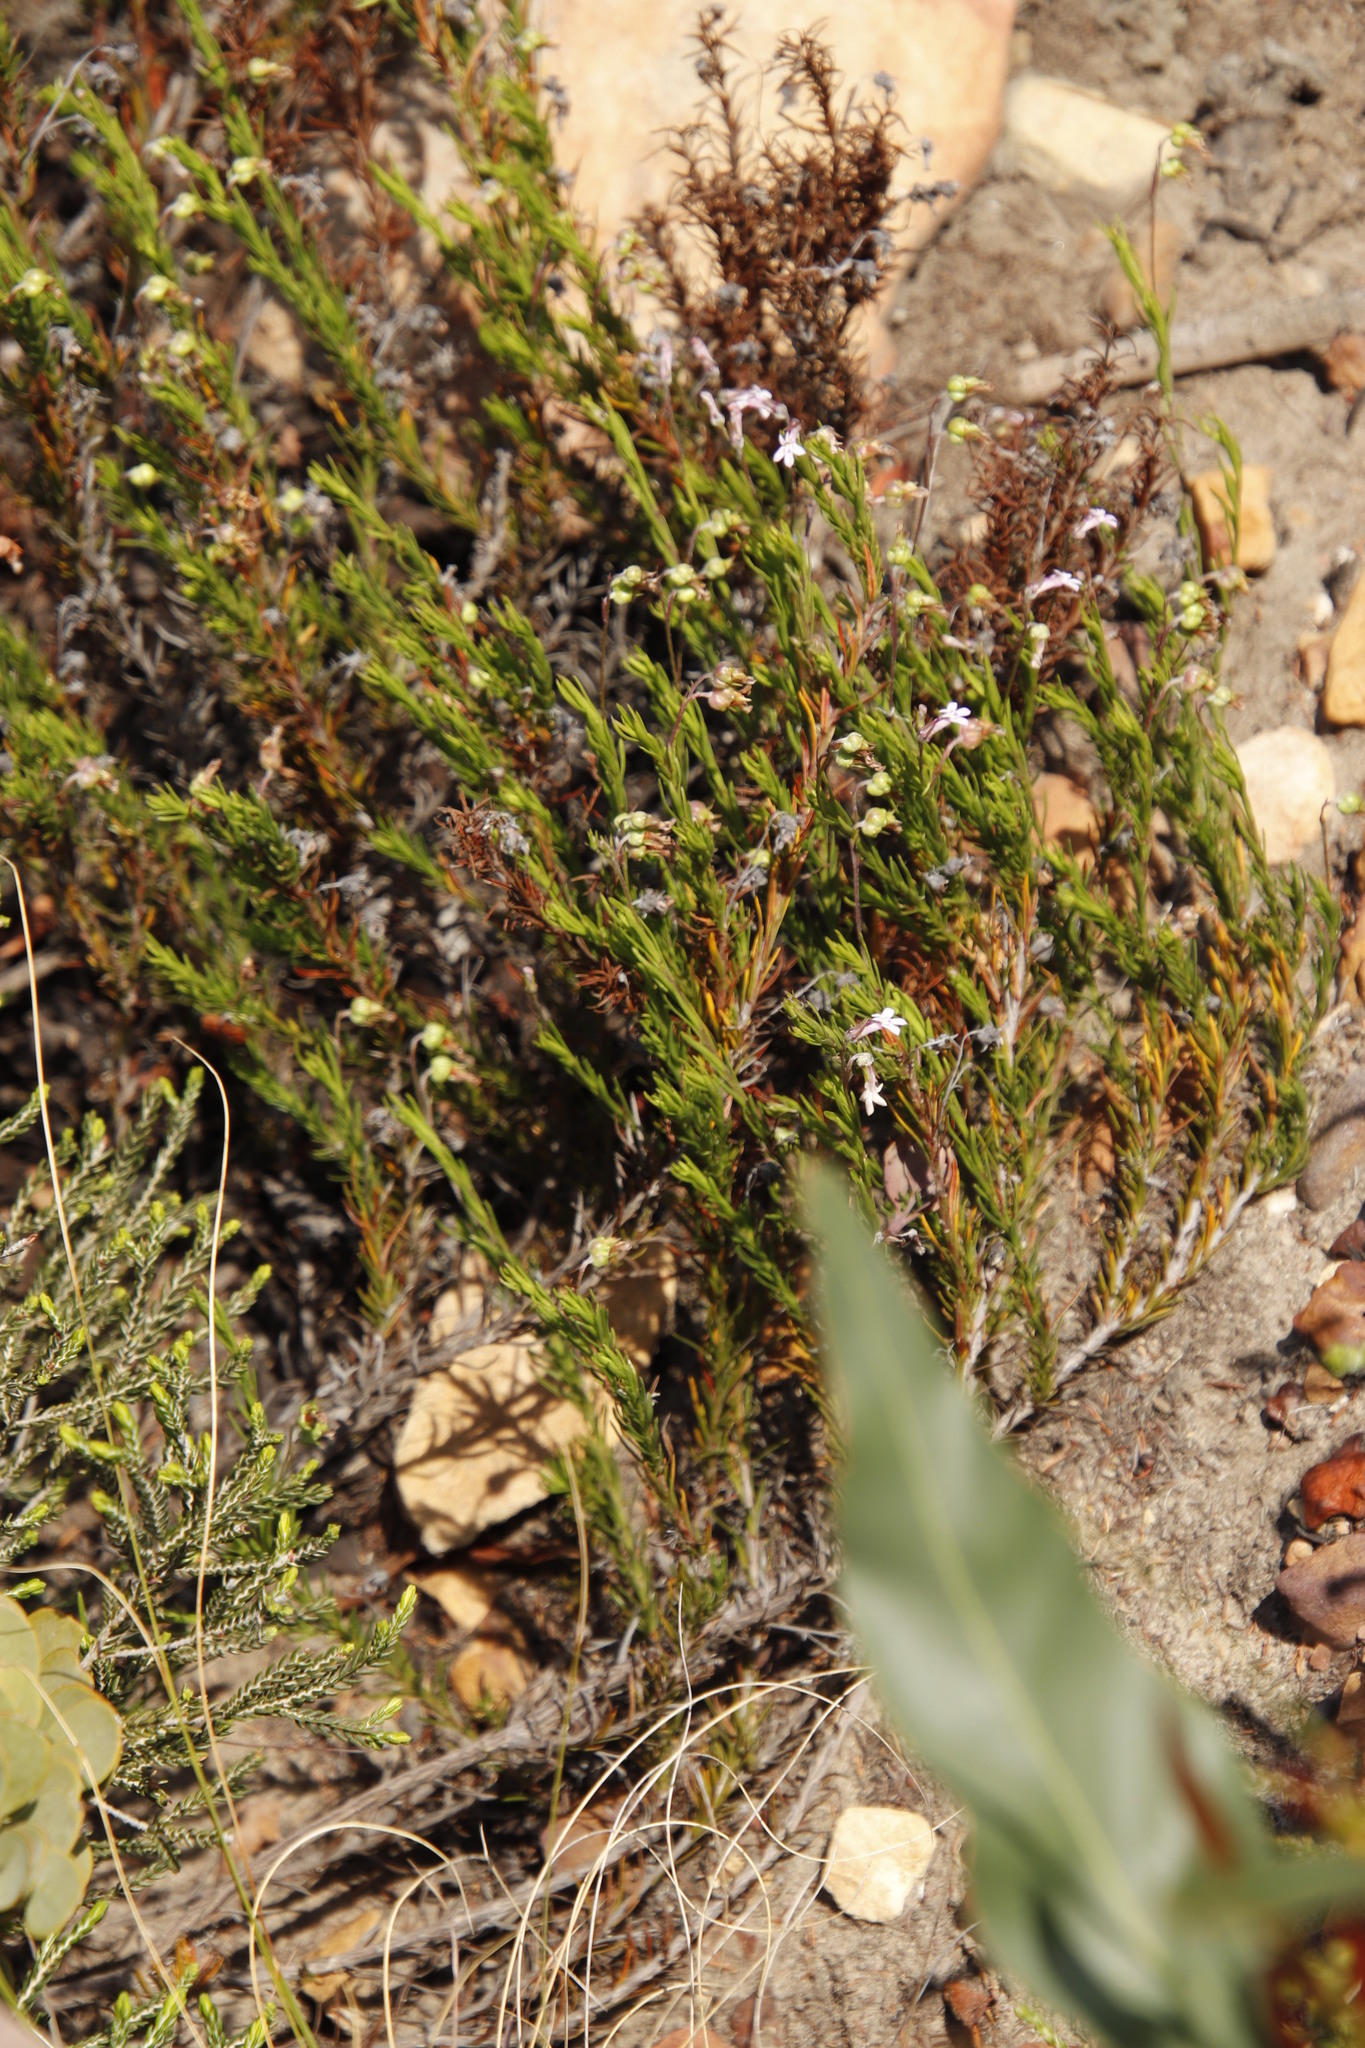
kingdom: Plantae
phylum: Tracheophyta
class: Magnoliopsida
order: Asterales
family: Campanulaceae
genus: Lobelia
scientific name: Lobelia pinifolia
